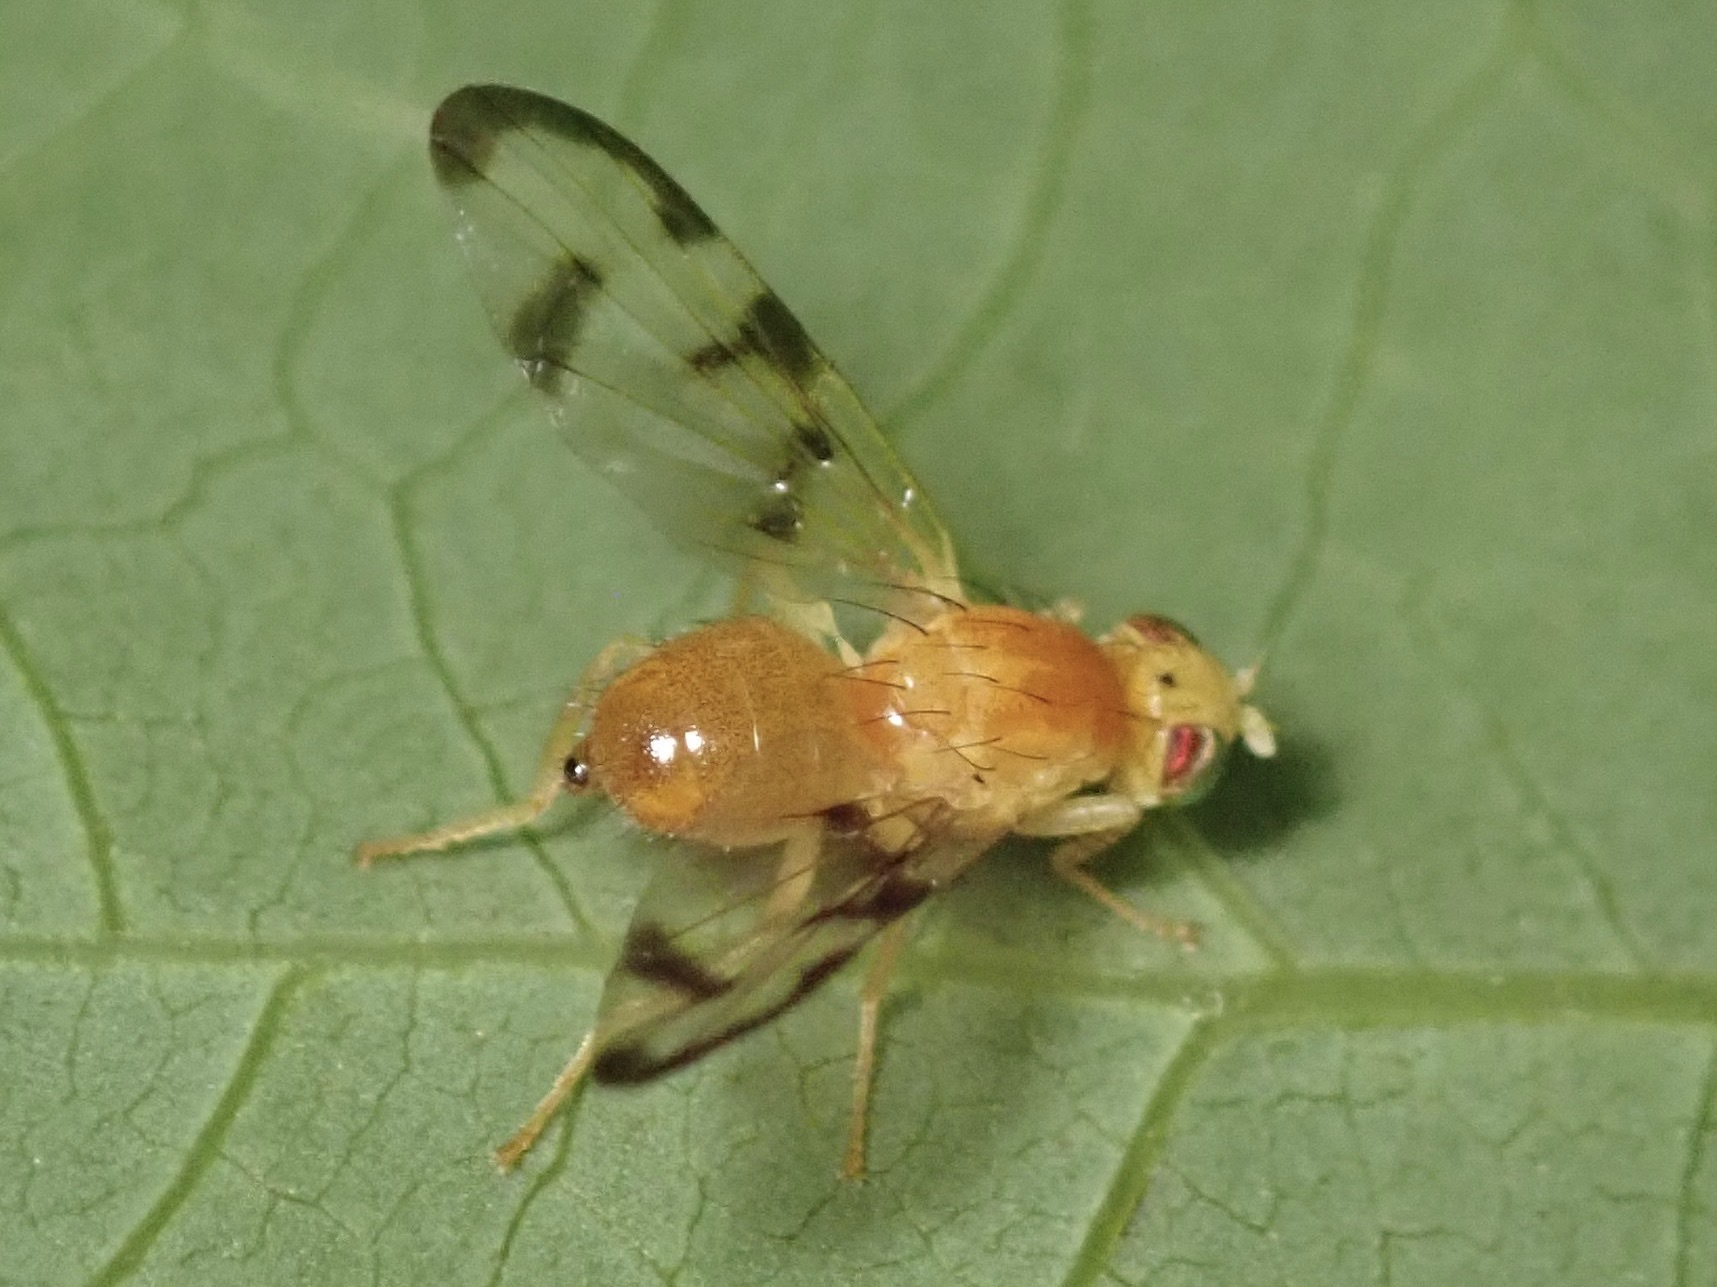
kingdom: Animalia
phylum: Arthropoda
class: Insecta
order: Diptera
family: Tephritidae
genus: Trypeta
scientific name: Trypeta flaveola
